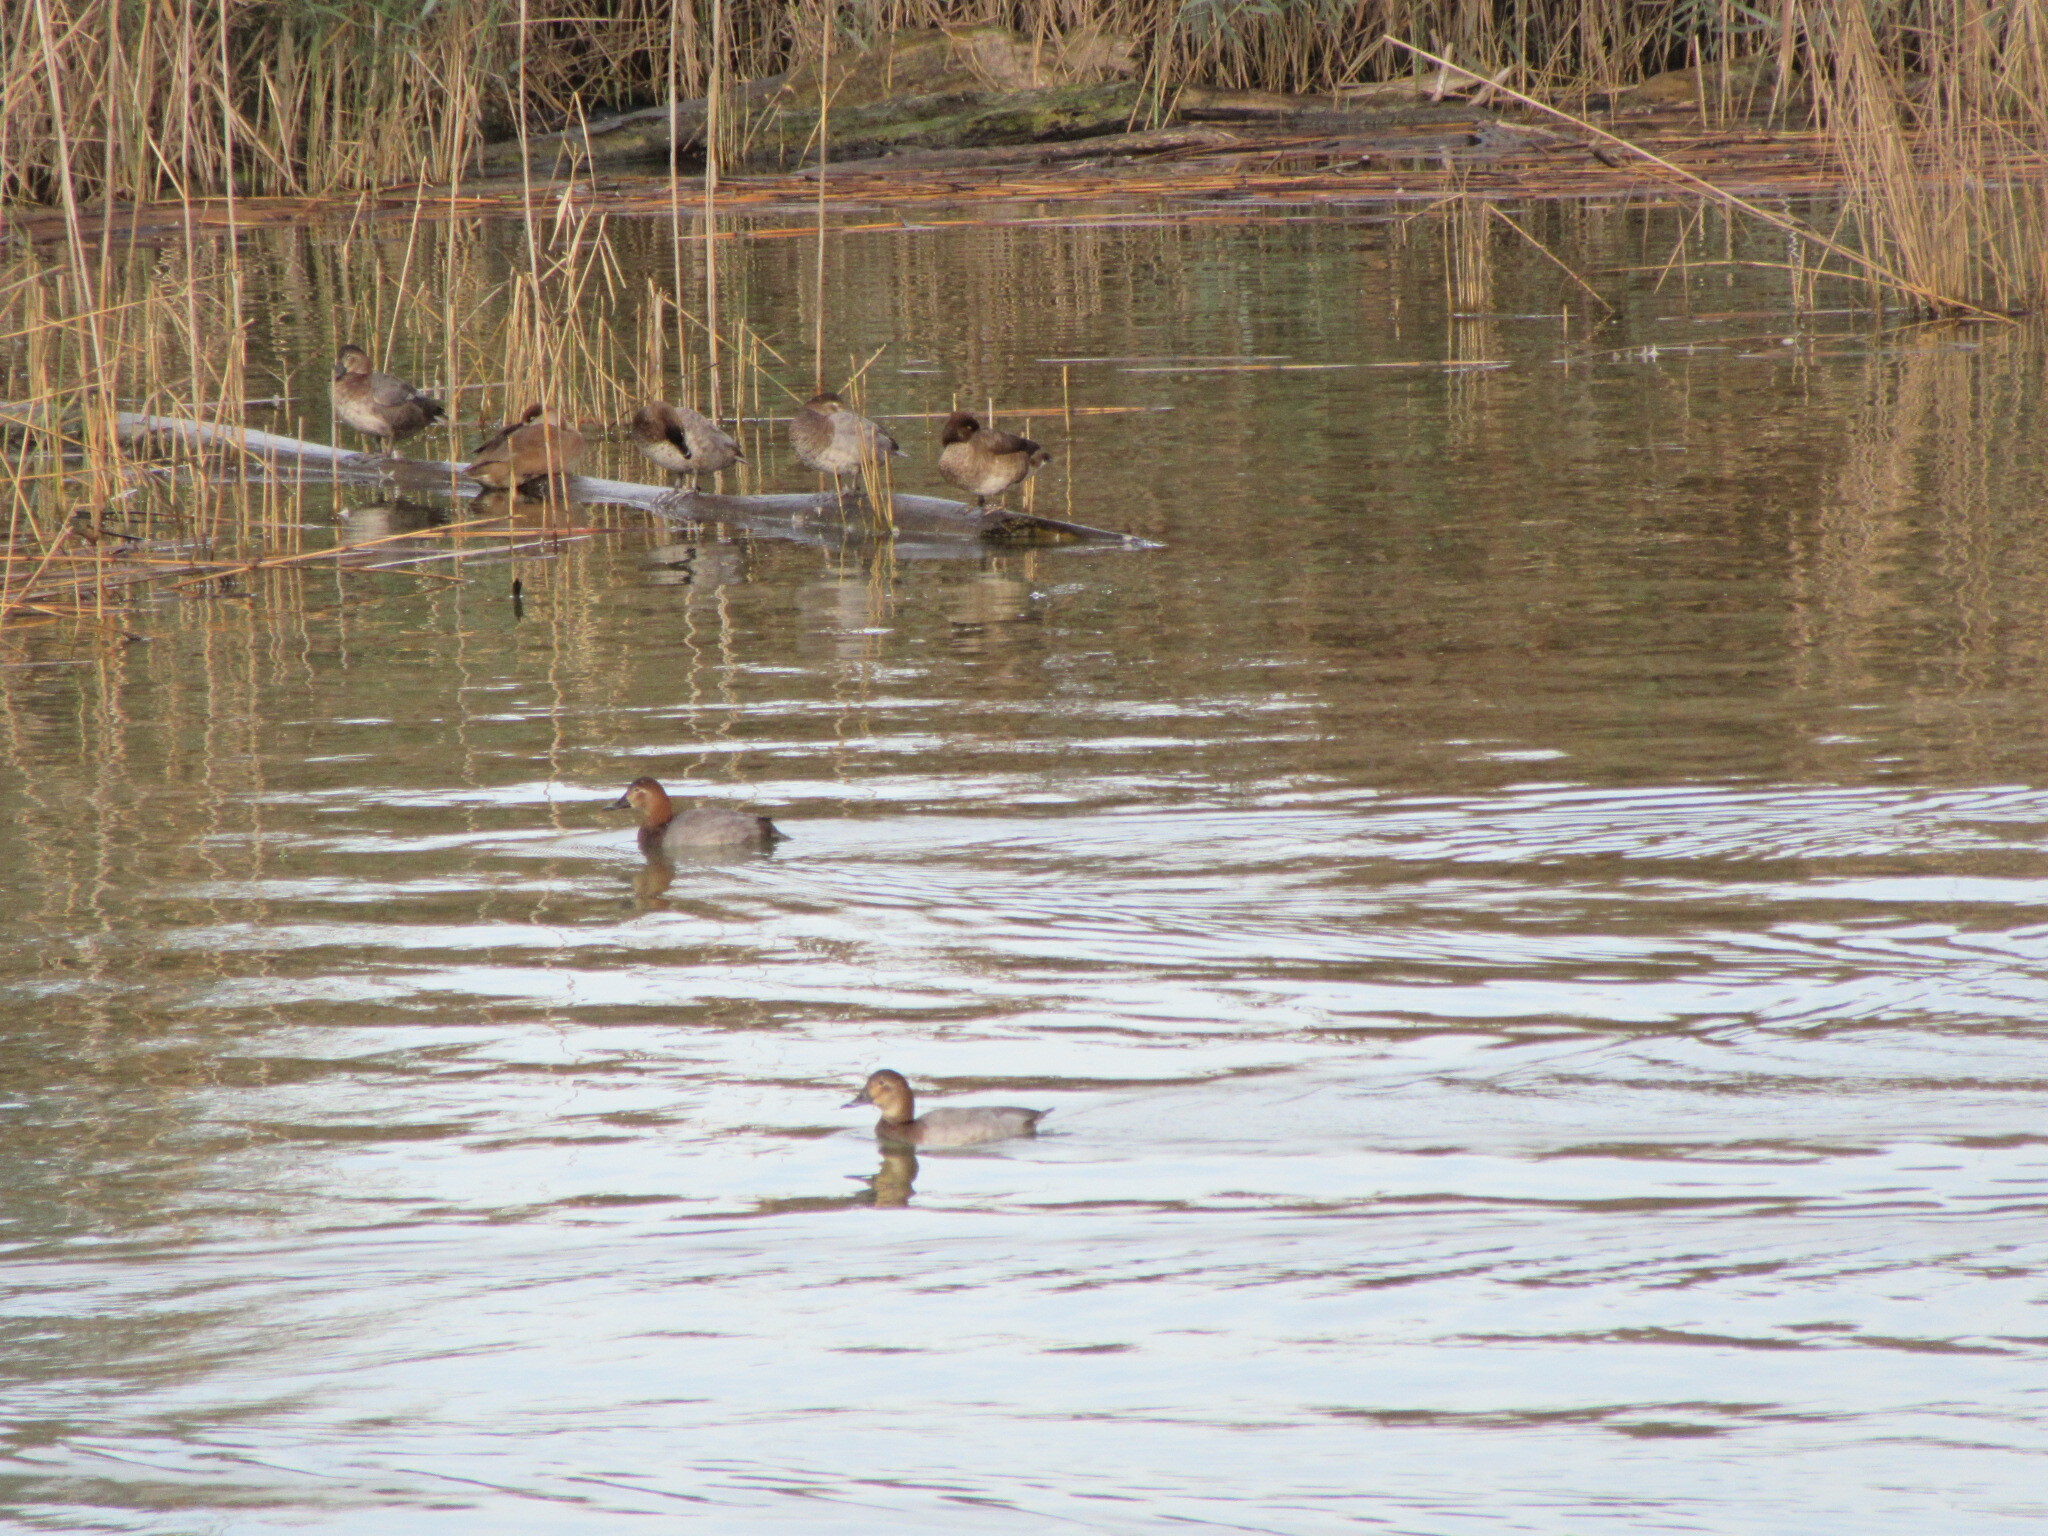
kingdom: Animalia
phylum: Chordata
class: Aves
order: Anseriformes
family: Anatidae
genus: Aythya
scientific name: Aythya ferina
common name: Common pochard
